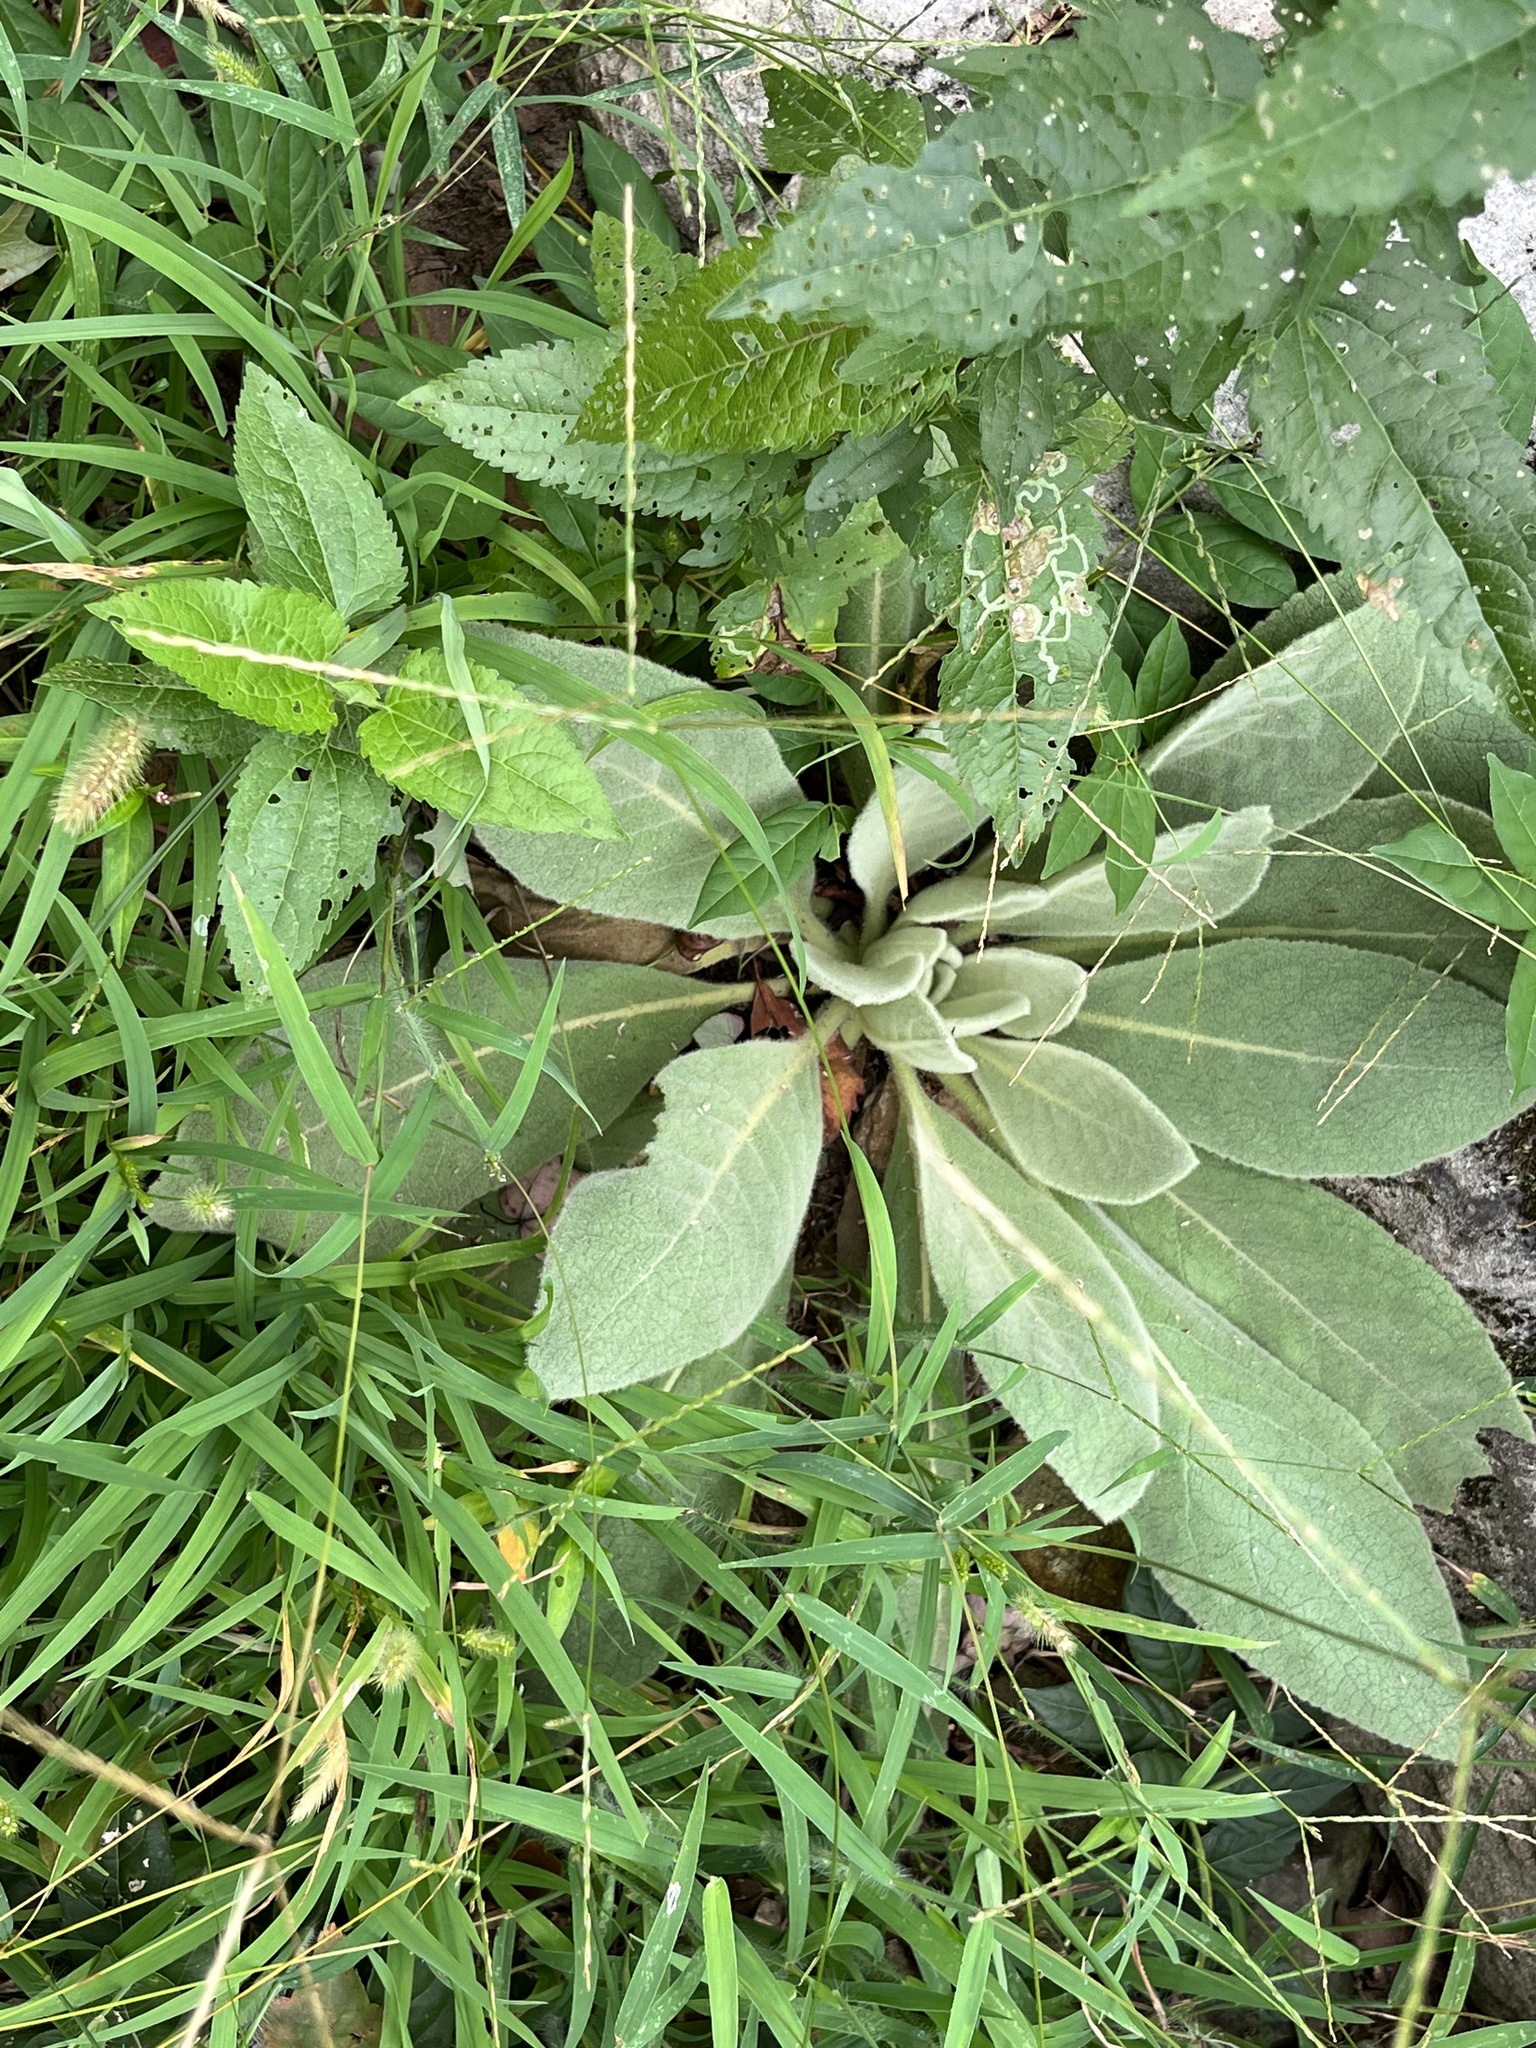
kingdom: Plantae
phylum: Tracheophyta
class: Magnoliopsida
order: Lamiales
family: Scrophulariaceae
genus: Verbascum
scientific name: Verbascum thapsus
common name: Common mullein
